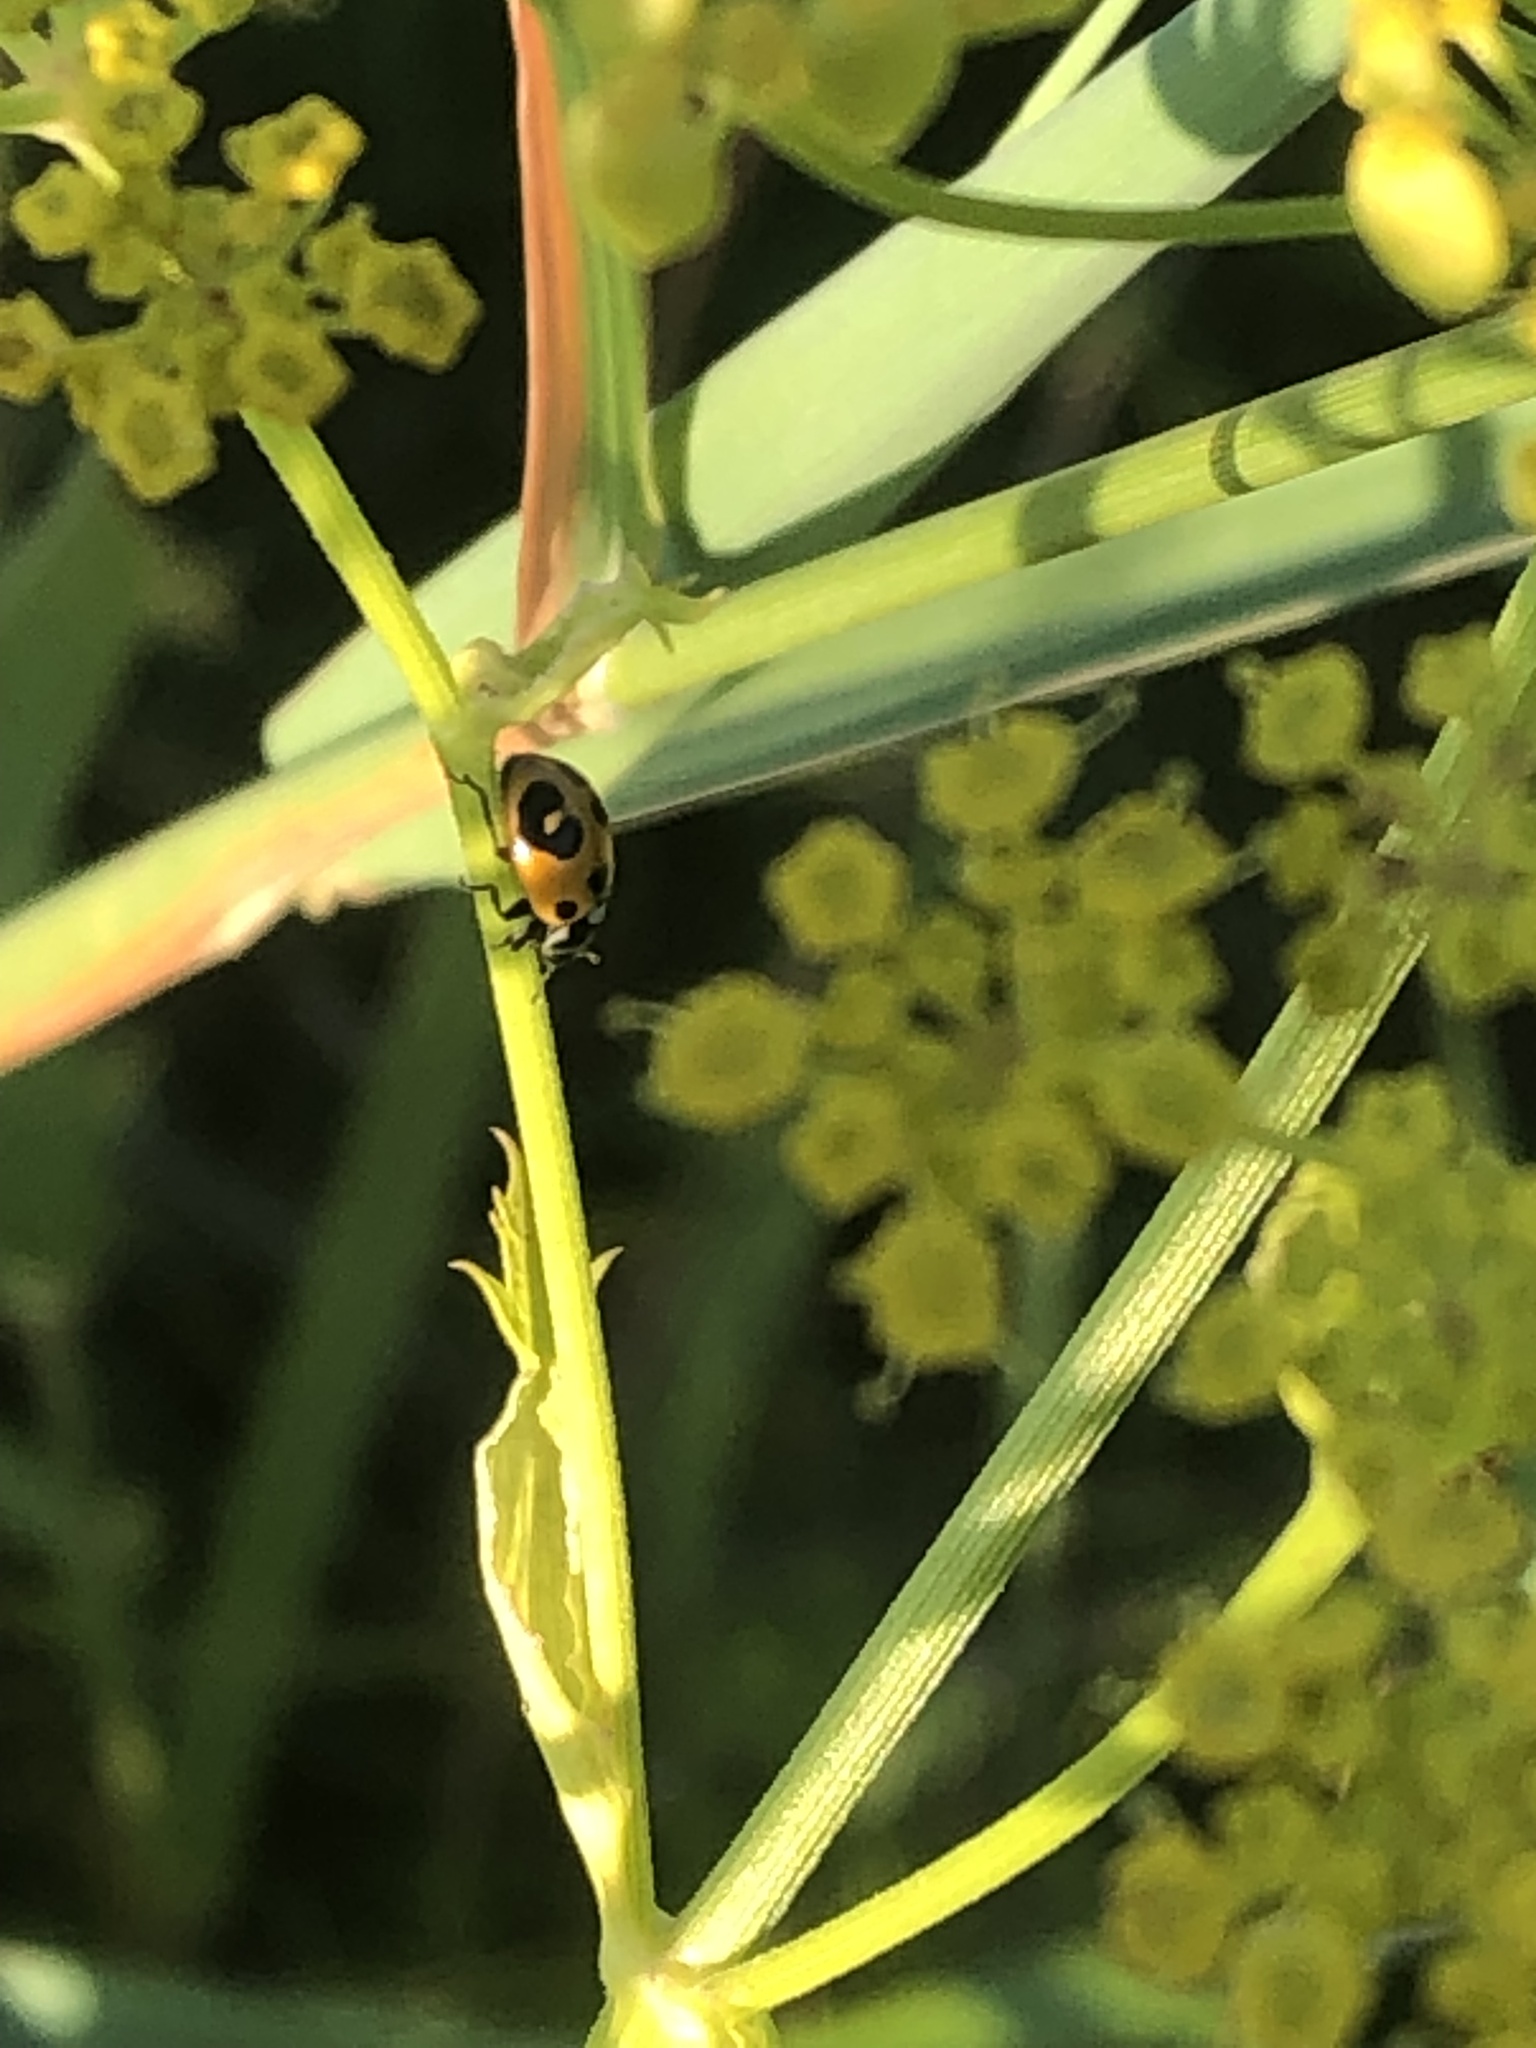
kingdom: Animalia
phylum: Arthropoda
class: Insecta
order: Coleoptera
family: Coccinellidae
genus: Hippodamia
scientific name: Hippodamia parenthesis
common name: Parenthesis lady beetle
